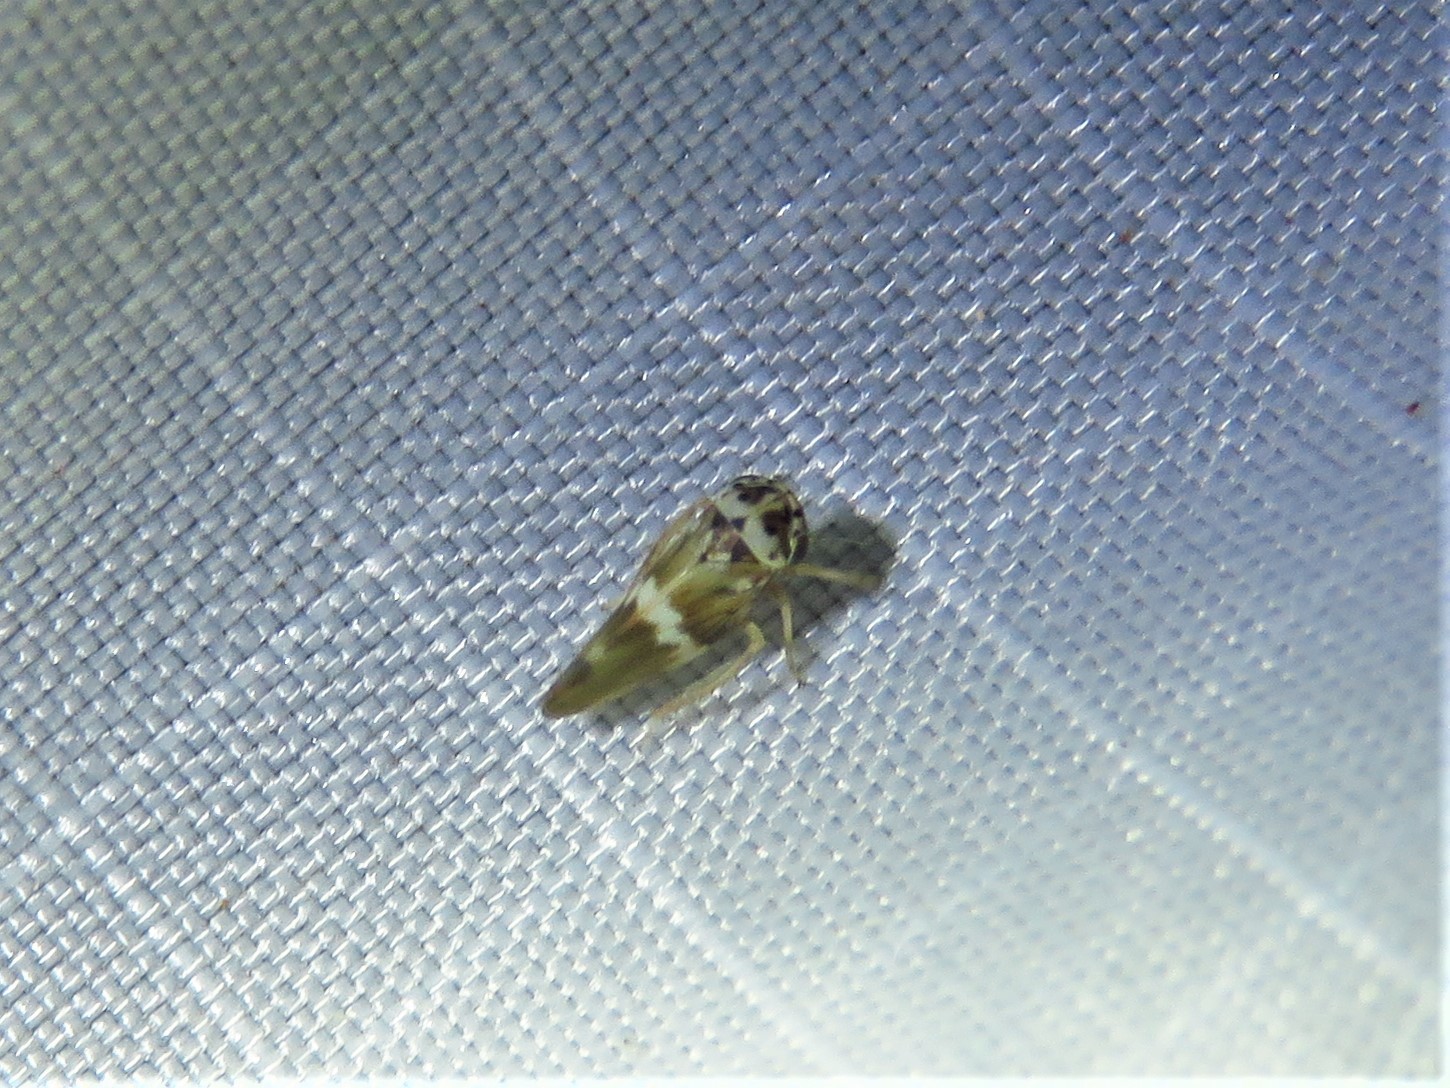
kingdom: Animalia
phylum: Arthropoda
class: Insecta
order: Hemiptera
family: Cicadellidae
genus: Agalliopsis
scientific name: Agalliopsis cervina
